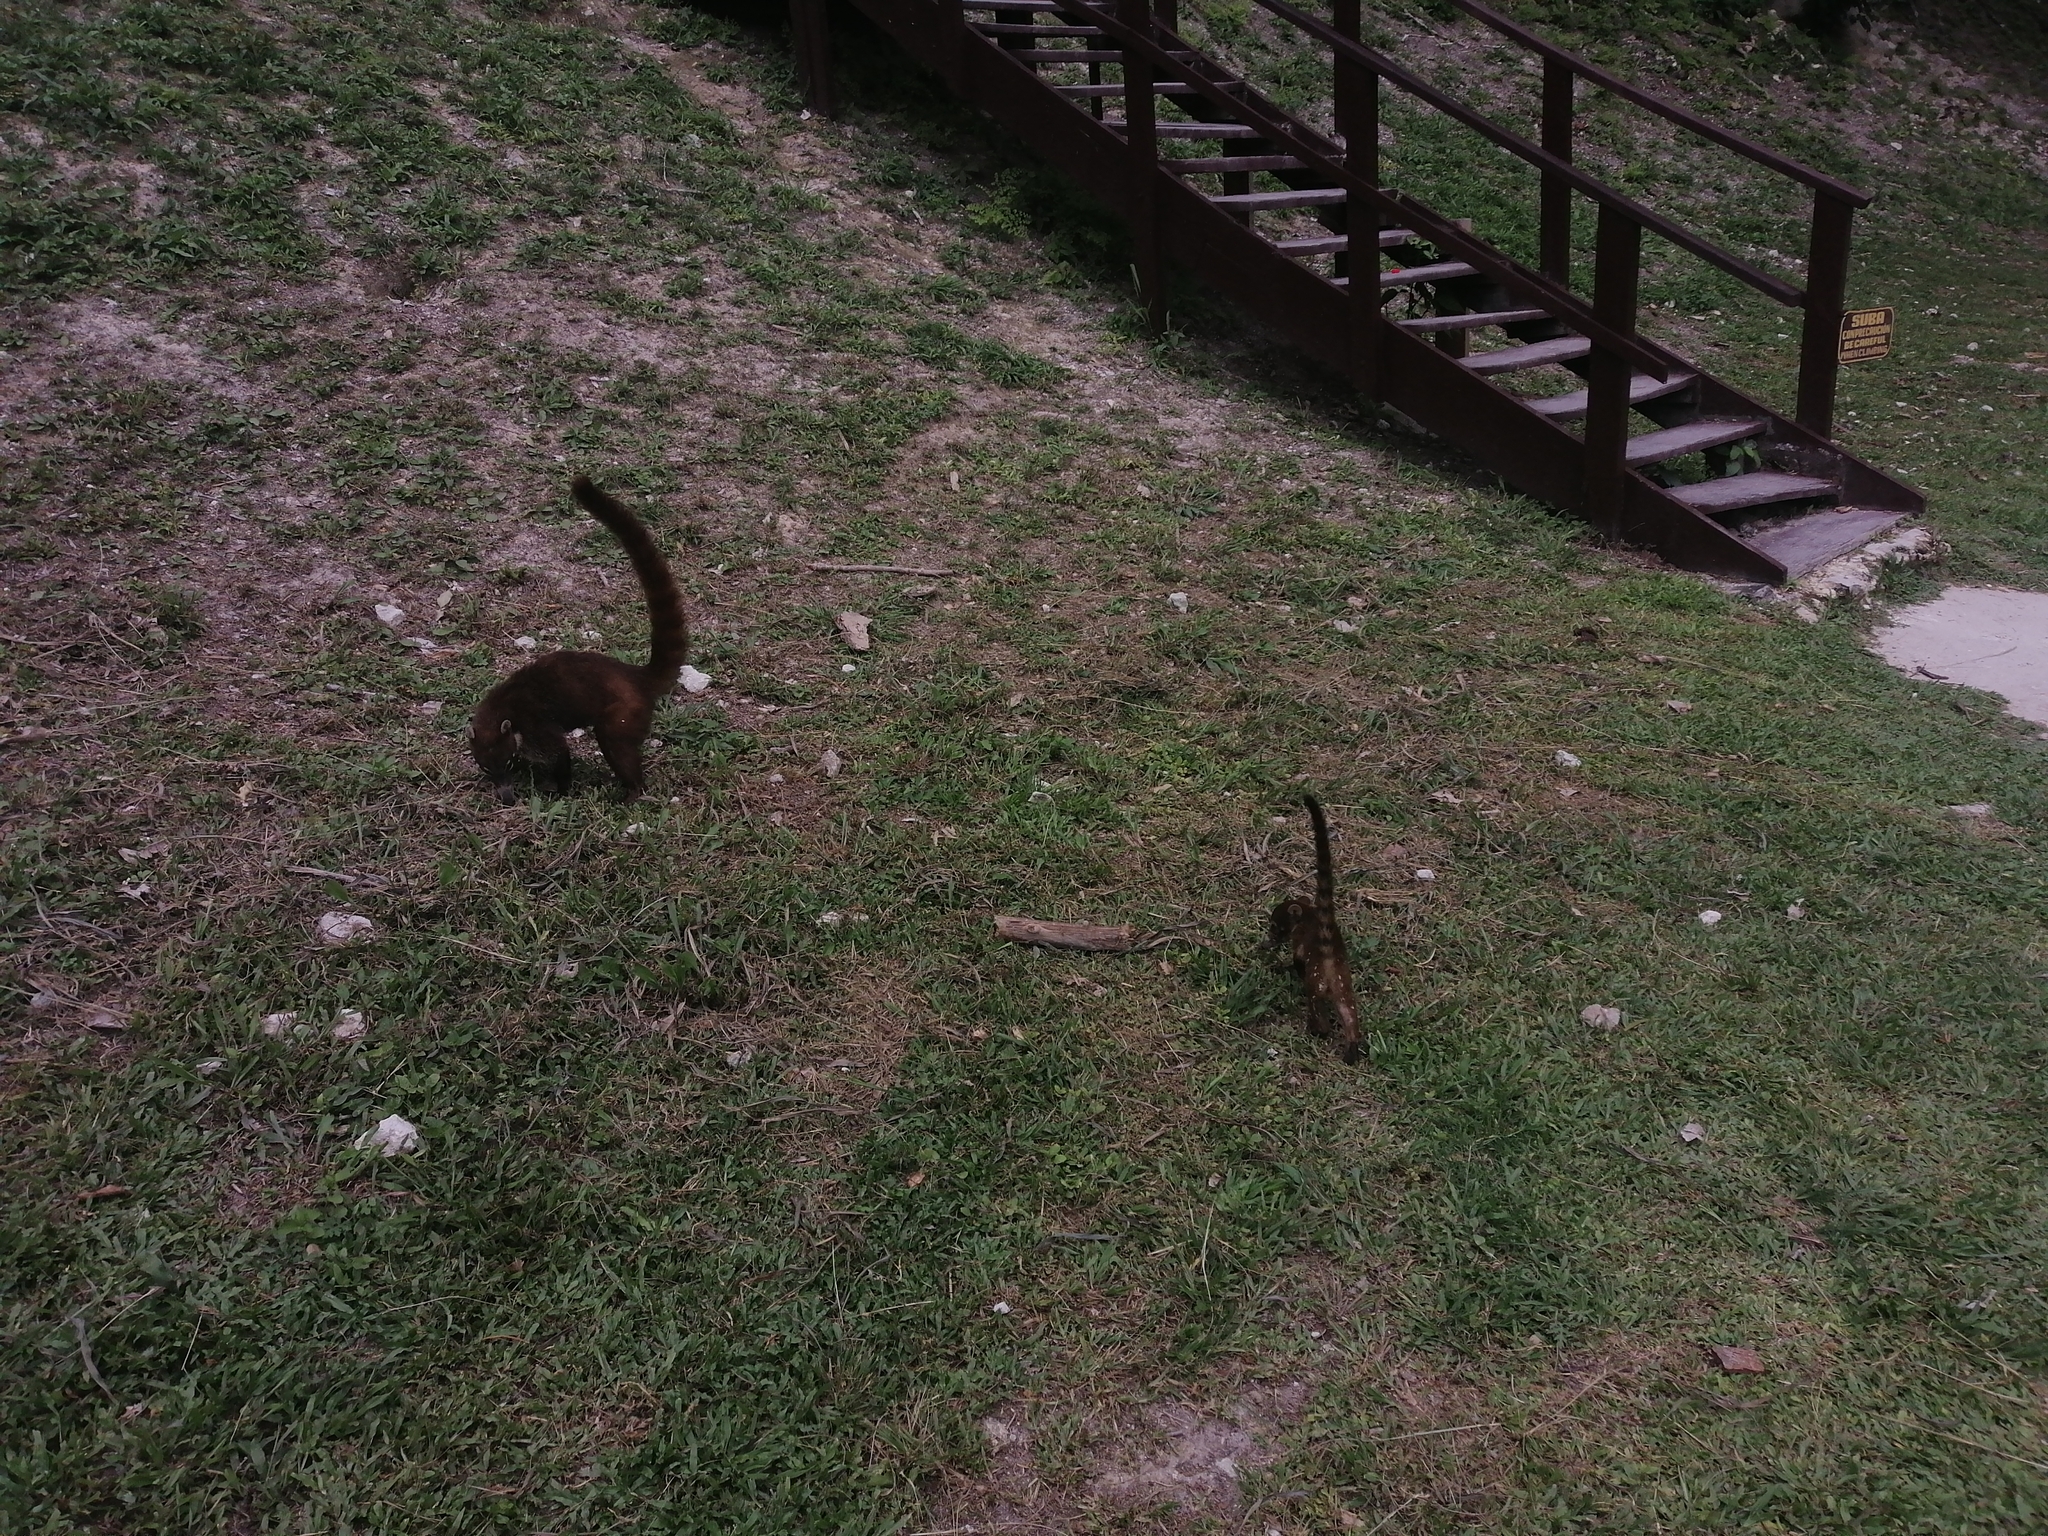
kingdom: Animalia
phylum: Chordata
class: Mammalia
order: Carnivora
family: Procyonidae
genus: Nasua
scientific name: Nasua narica
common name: White-nosed coati
